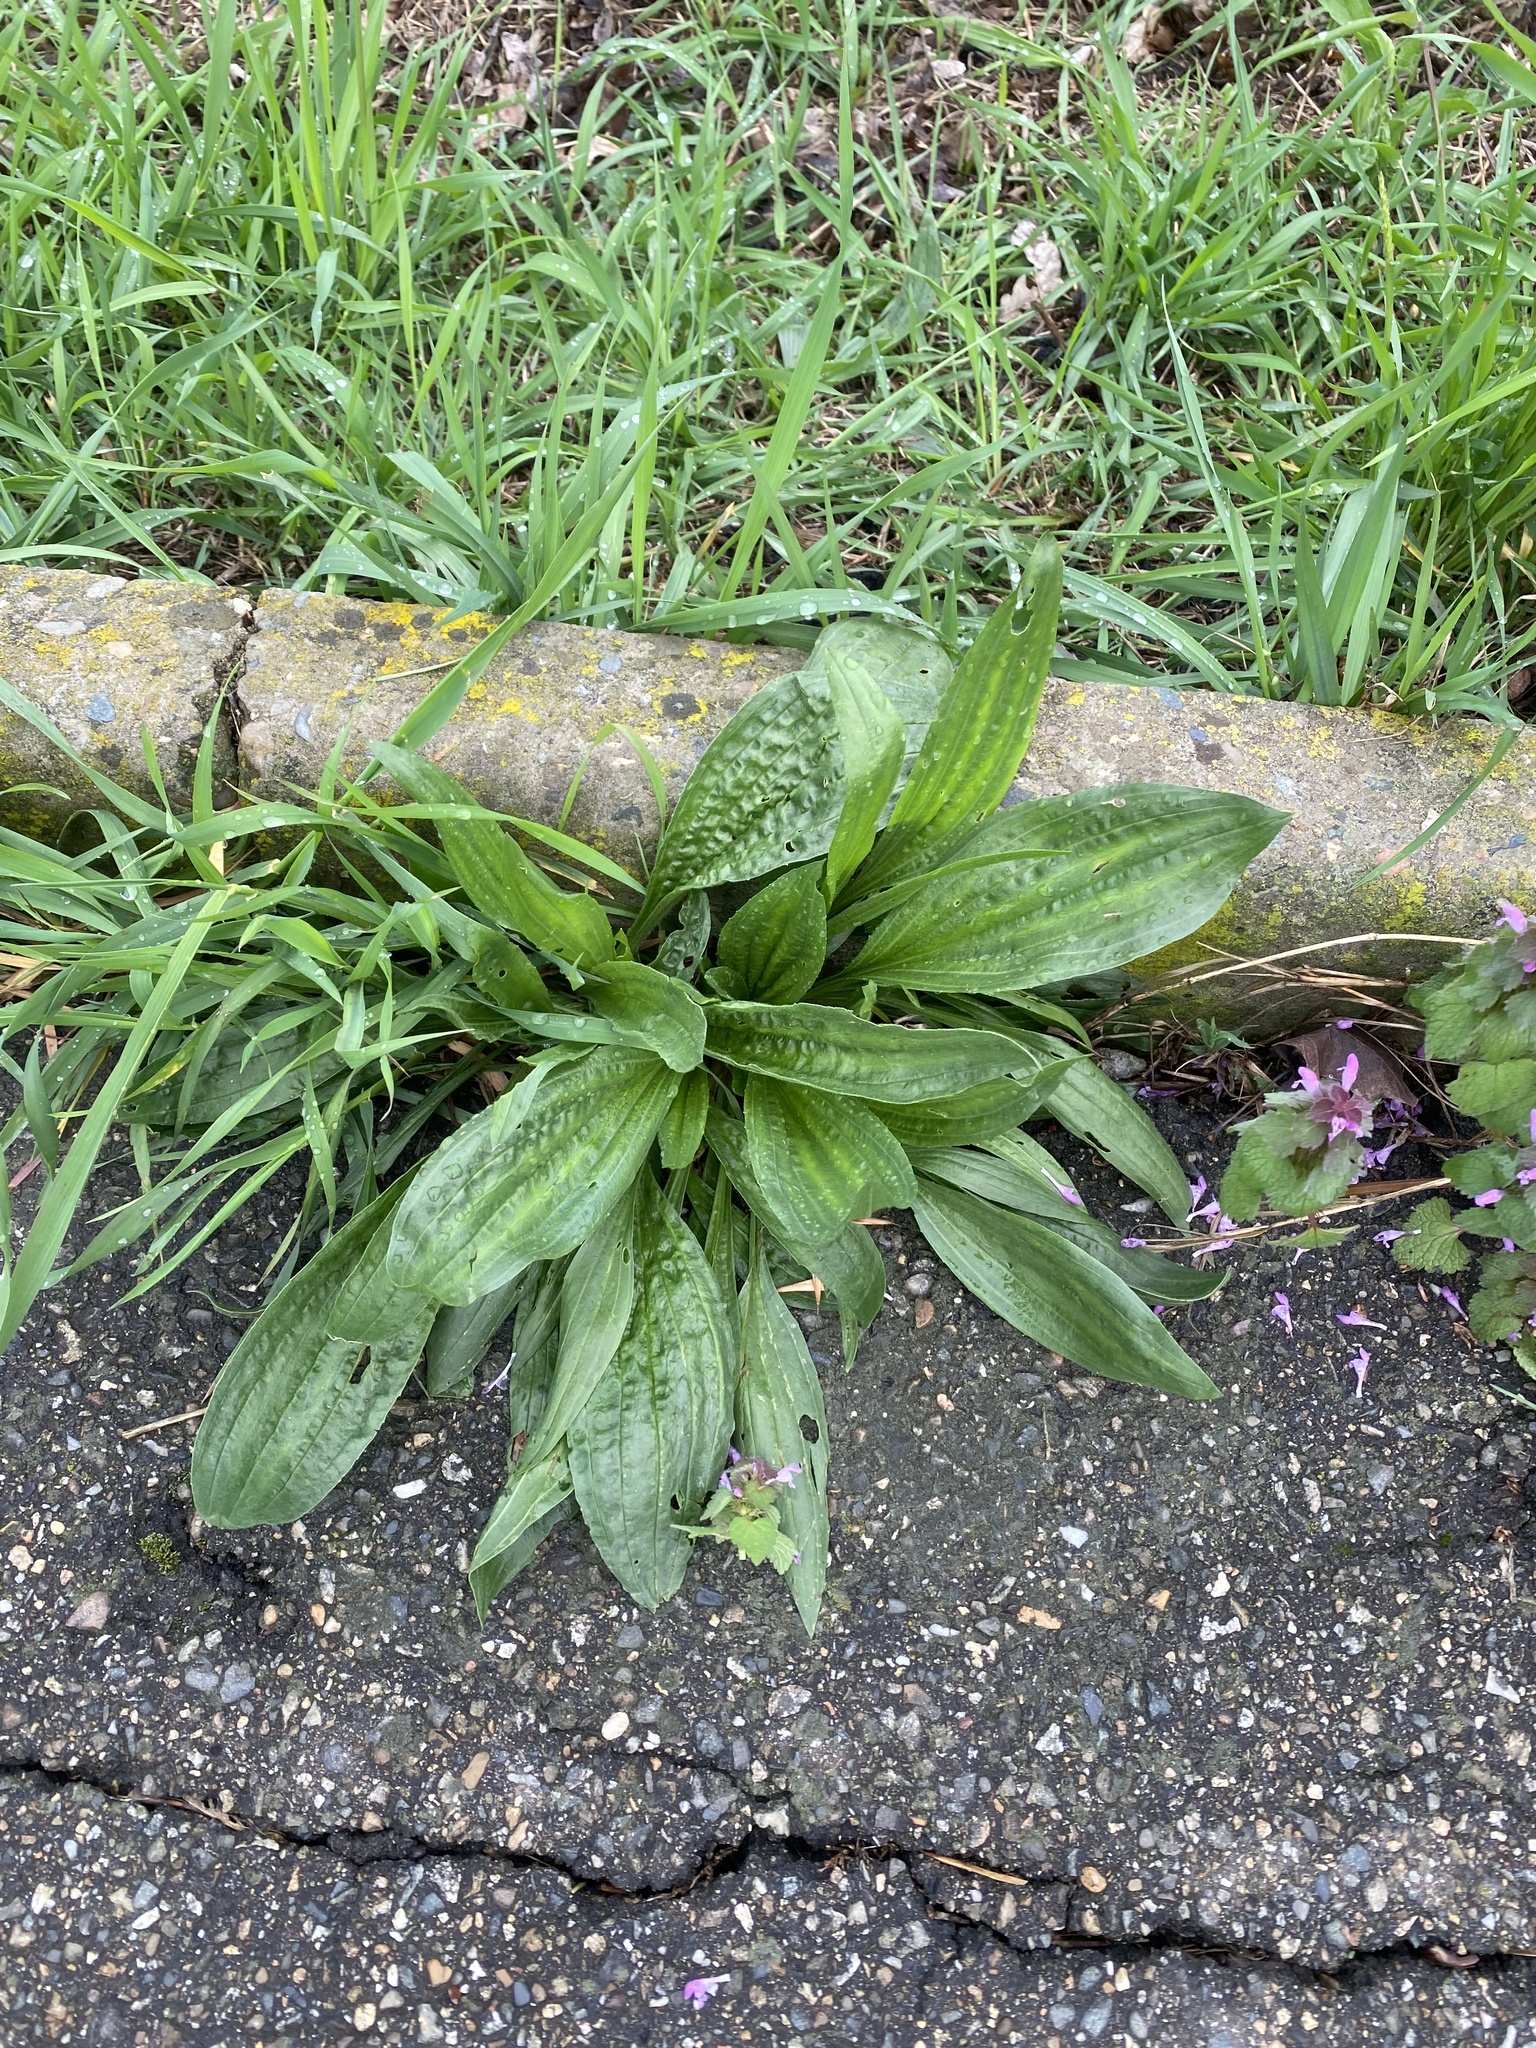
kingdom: Plantae
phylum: Tracheophyta
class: Magnoliopsida
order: Lamiales
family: Plantaginaceae
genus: Plantago
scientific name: Plantago lanceolata
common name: Ribwort plantain
